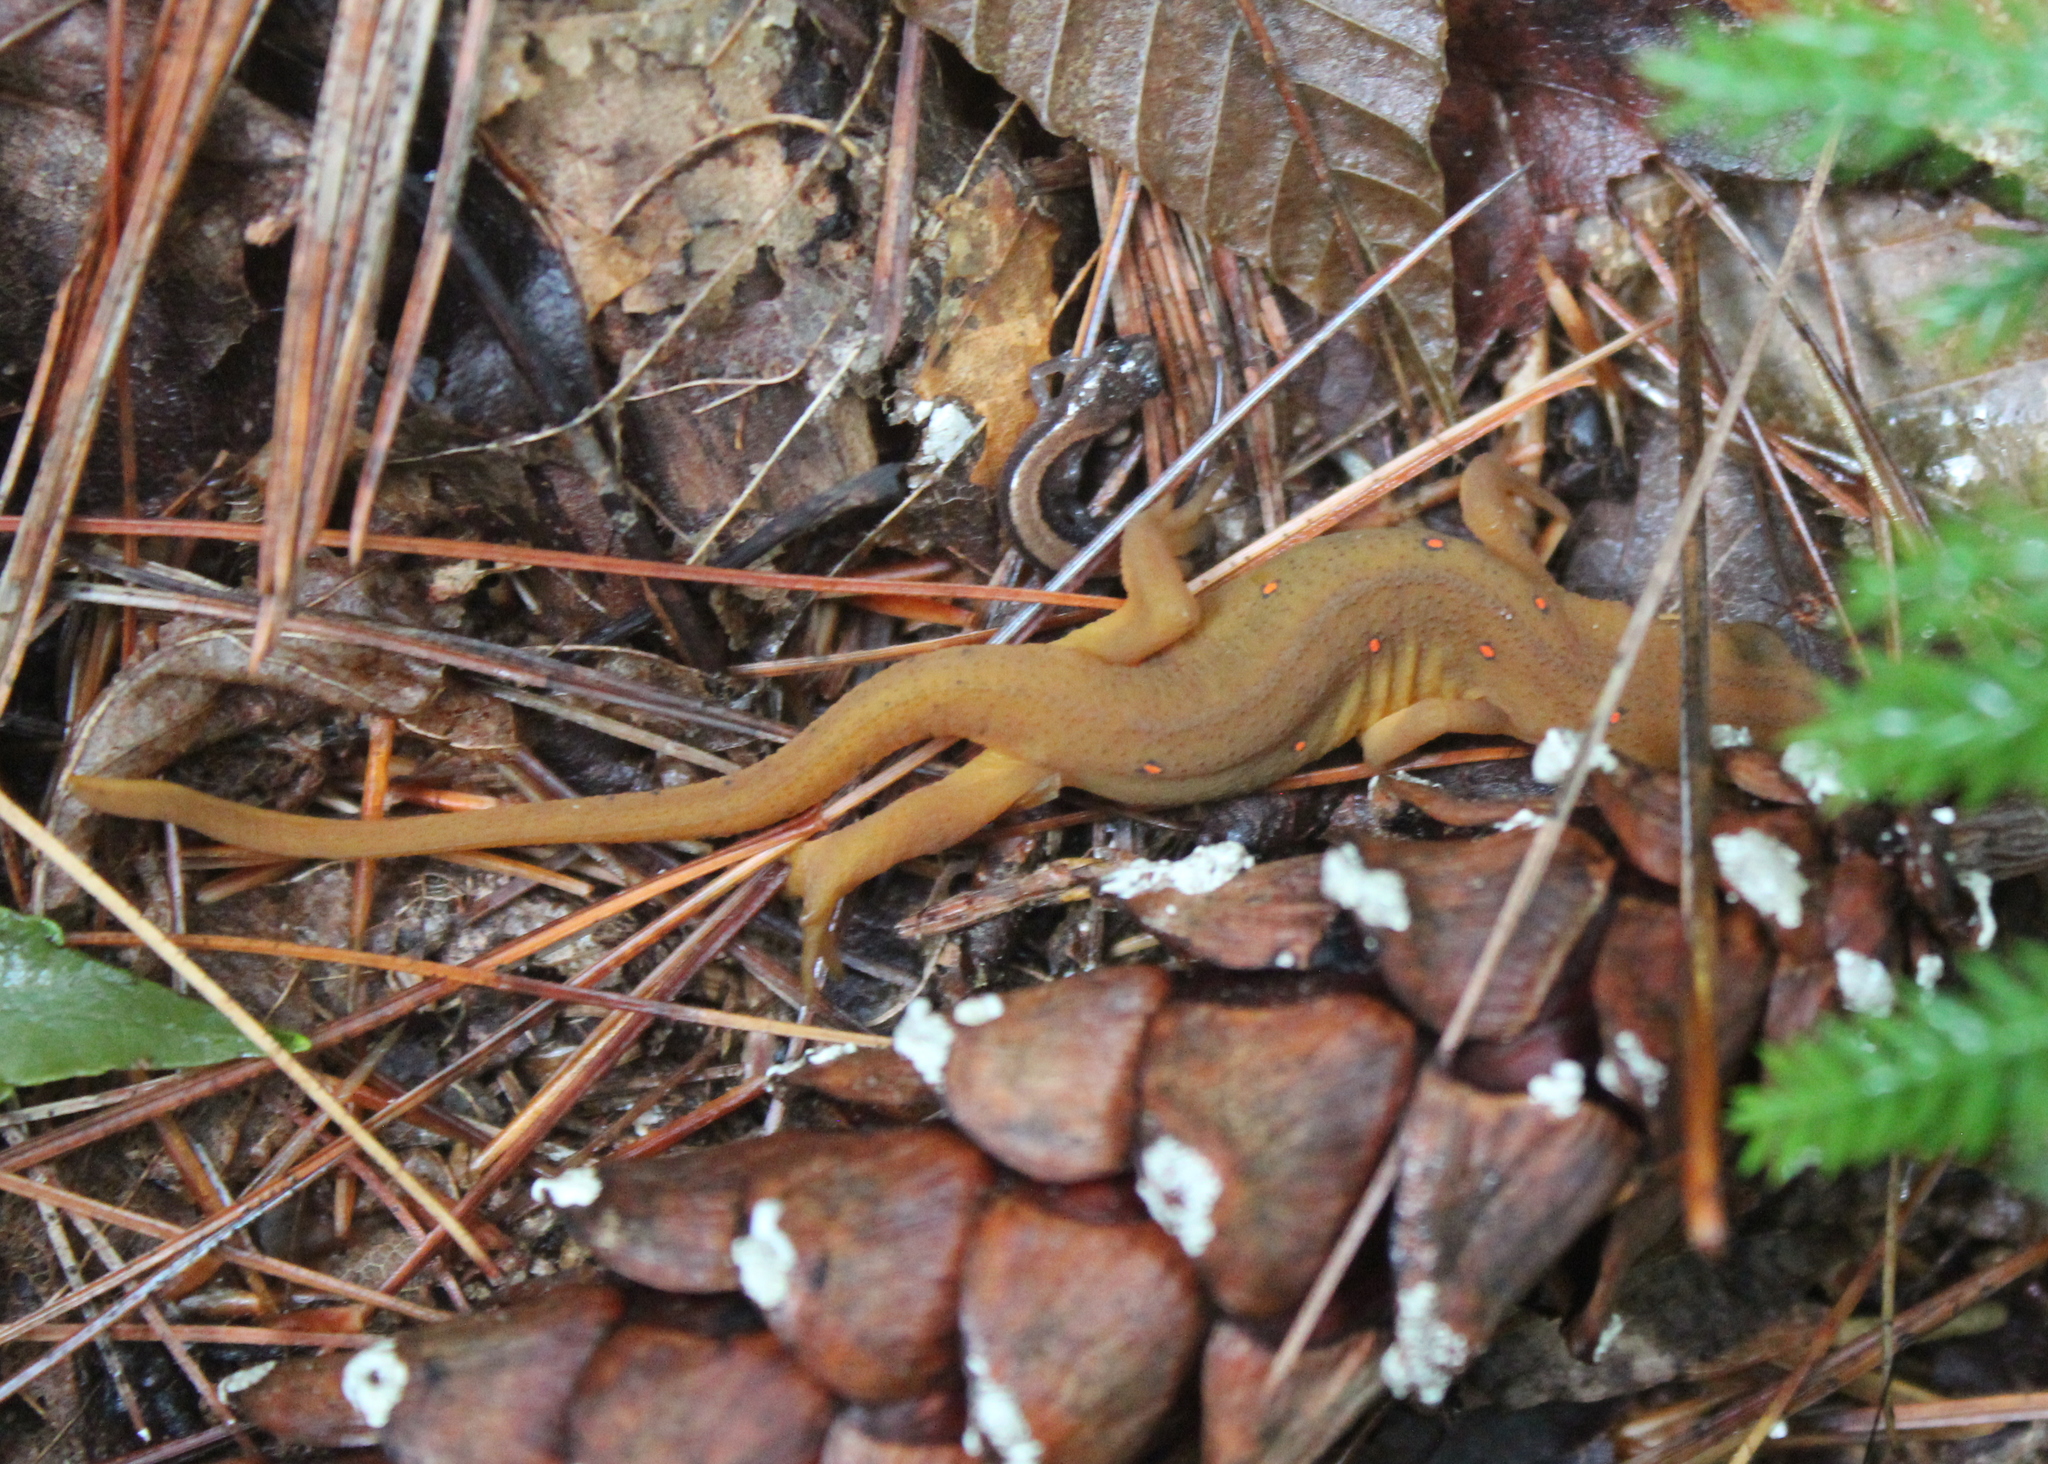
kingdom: Animalia
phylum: Chordata
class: Amphibia
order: Caudata
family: Salamandridae
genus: Notophthalmus
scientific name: Notophthalmus viridescens
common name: Eastern newt
